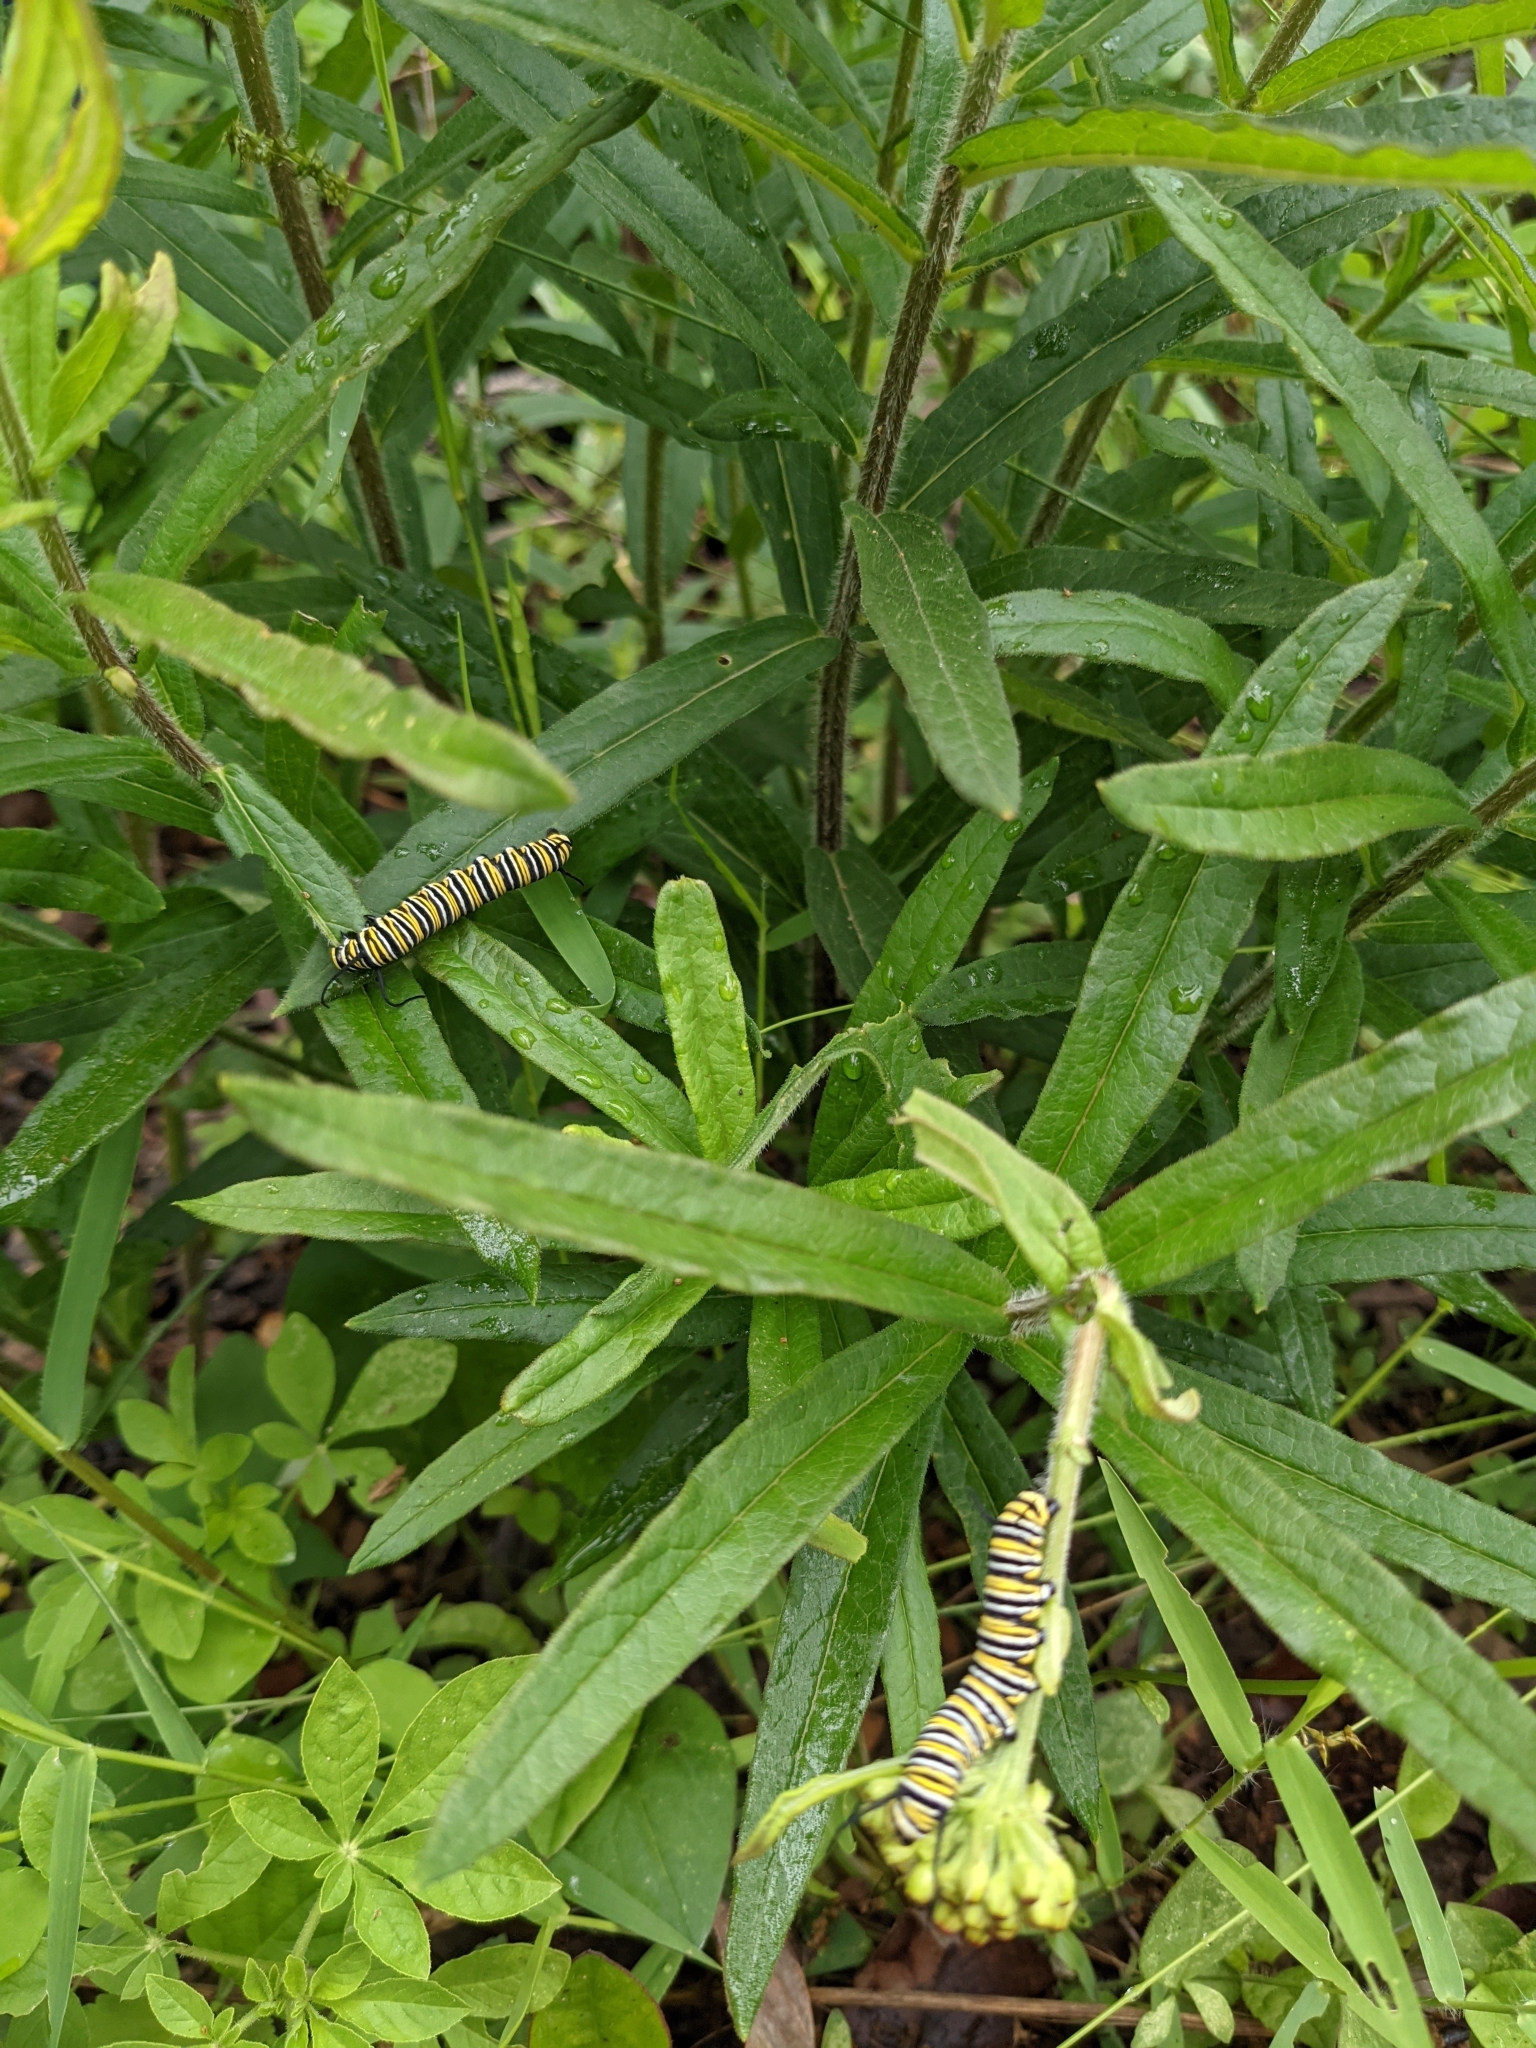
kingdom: Animalia
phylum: Arthropoda
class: Insecta
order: Lepidoptera
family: Nymphalidae
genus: Danaus
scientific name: Danaus plexippus
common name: Monarch
